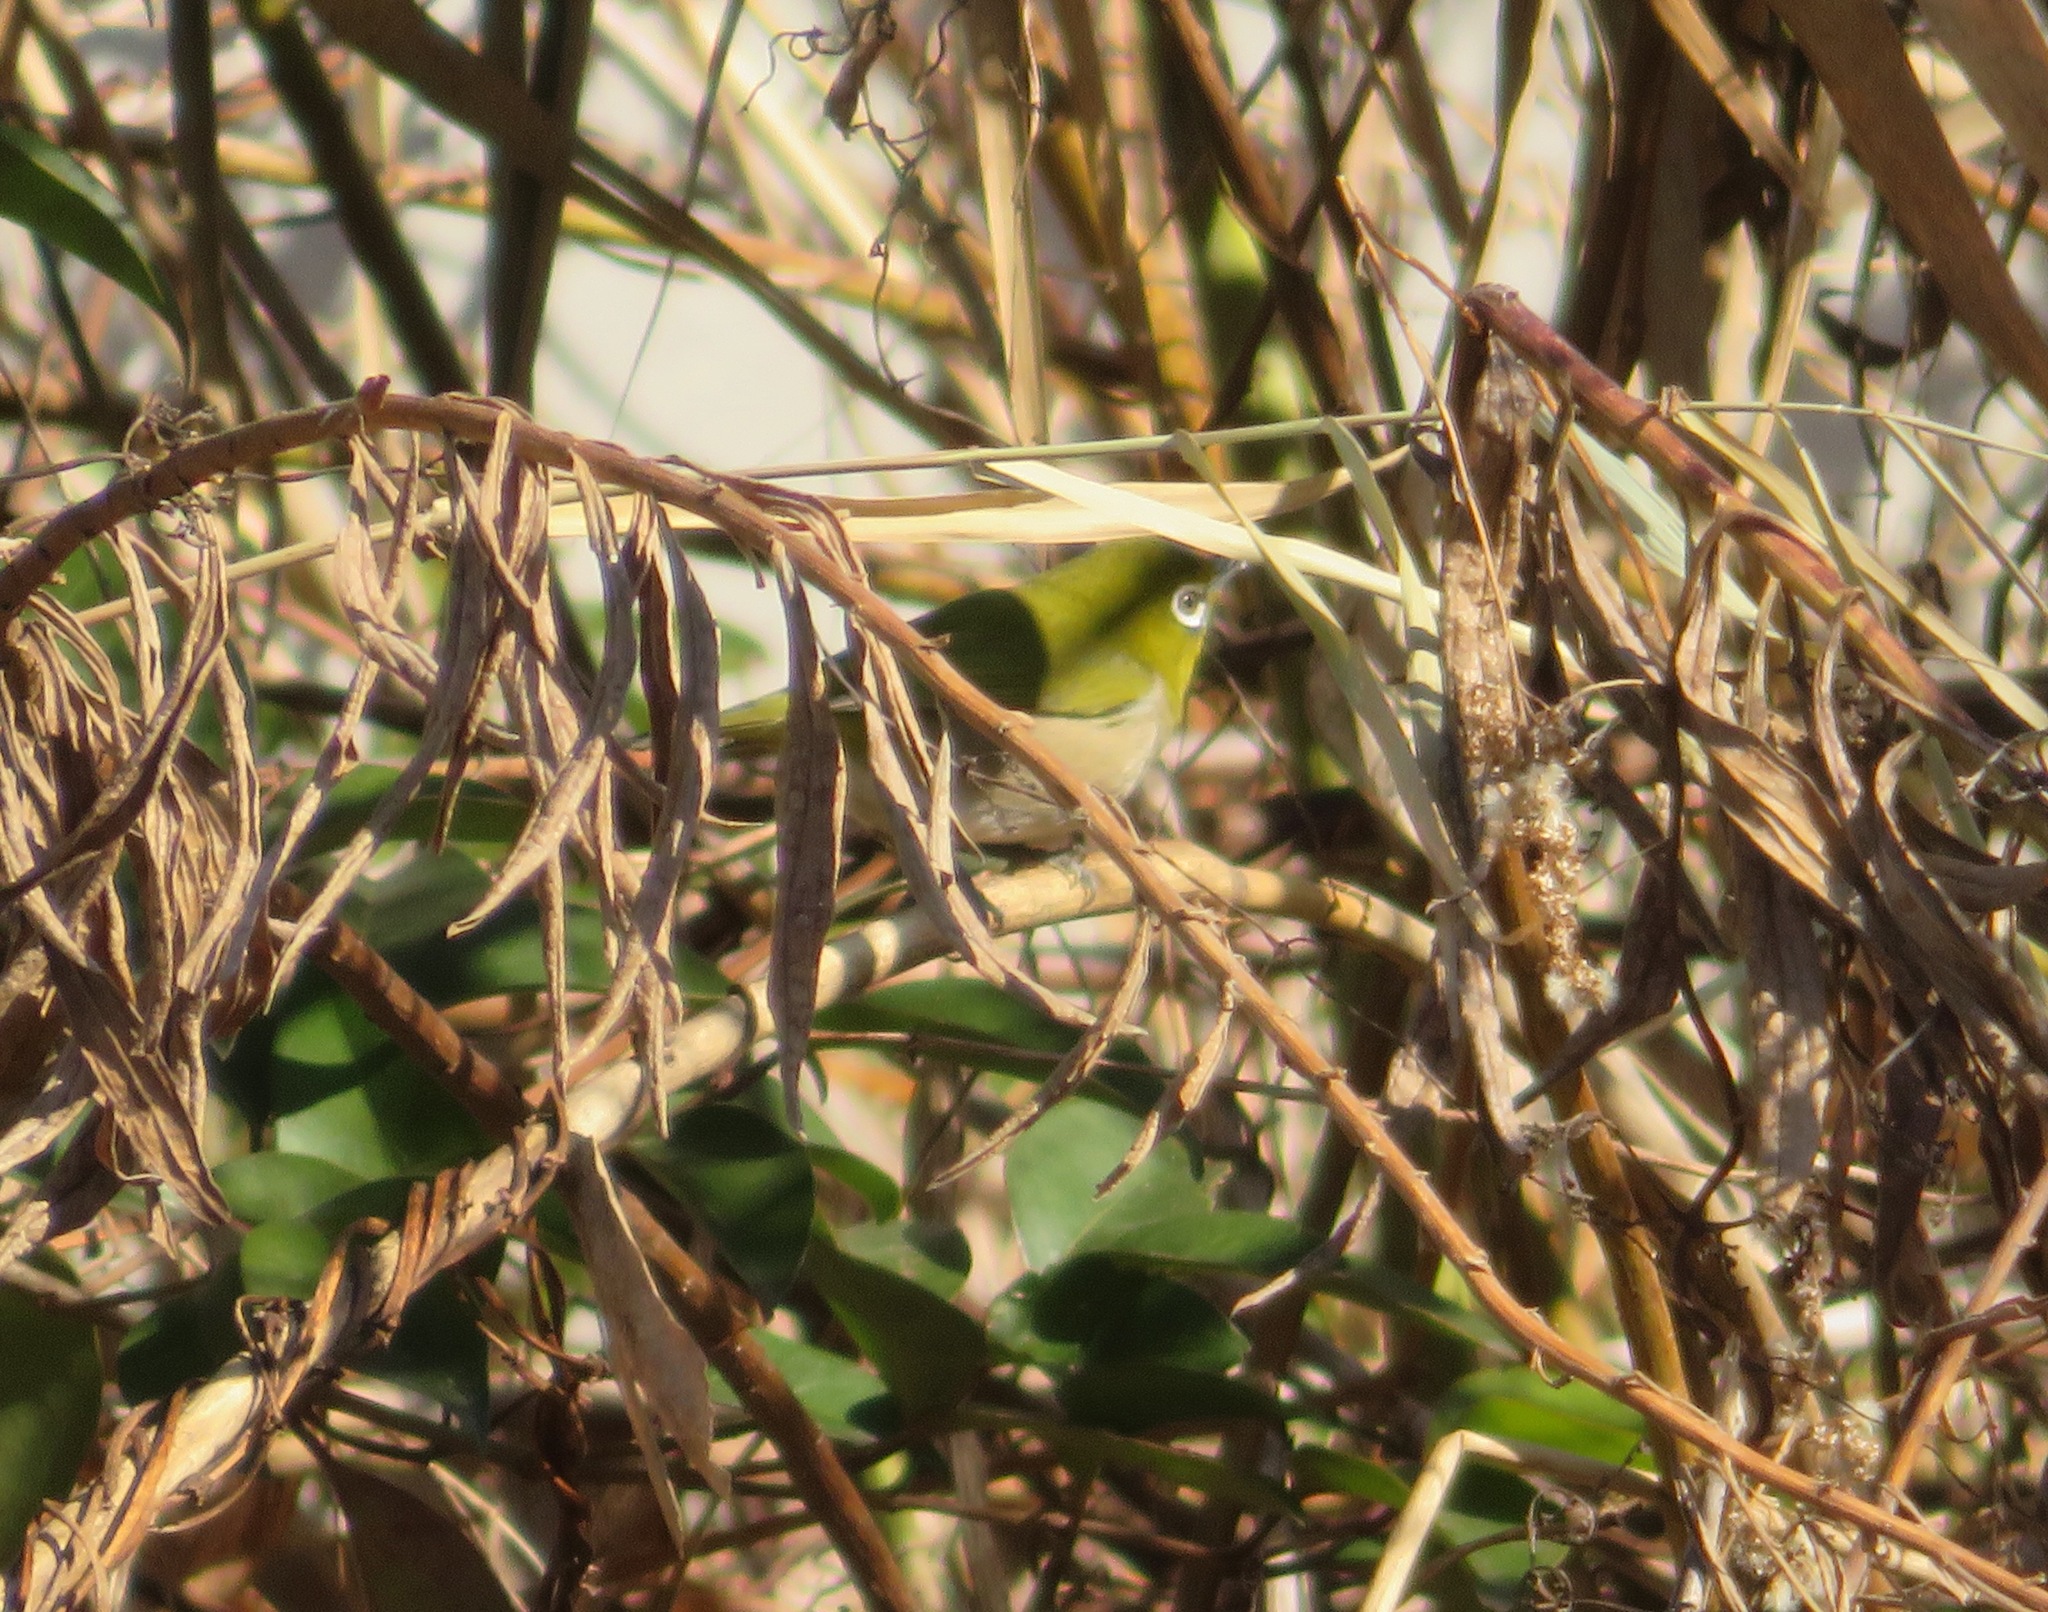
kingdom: Animalia
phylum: Chordata
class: Aves
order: Passeriformes
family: Zosteropidae
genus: Zosterops
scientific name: Zosterops japonicus
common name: Japanese white-eye
